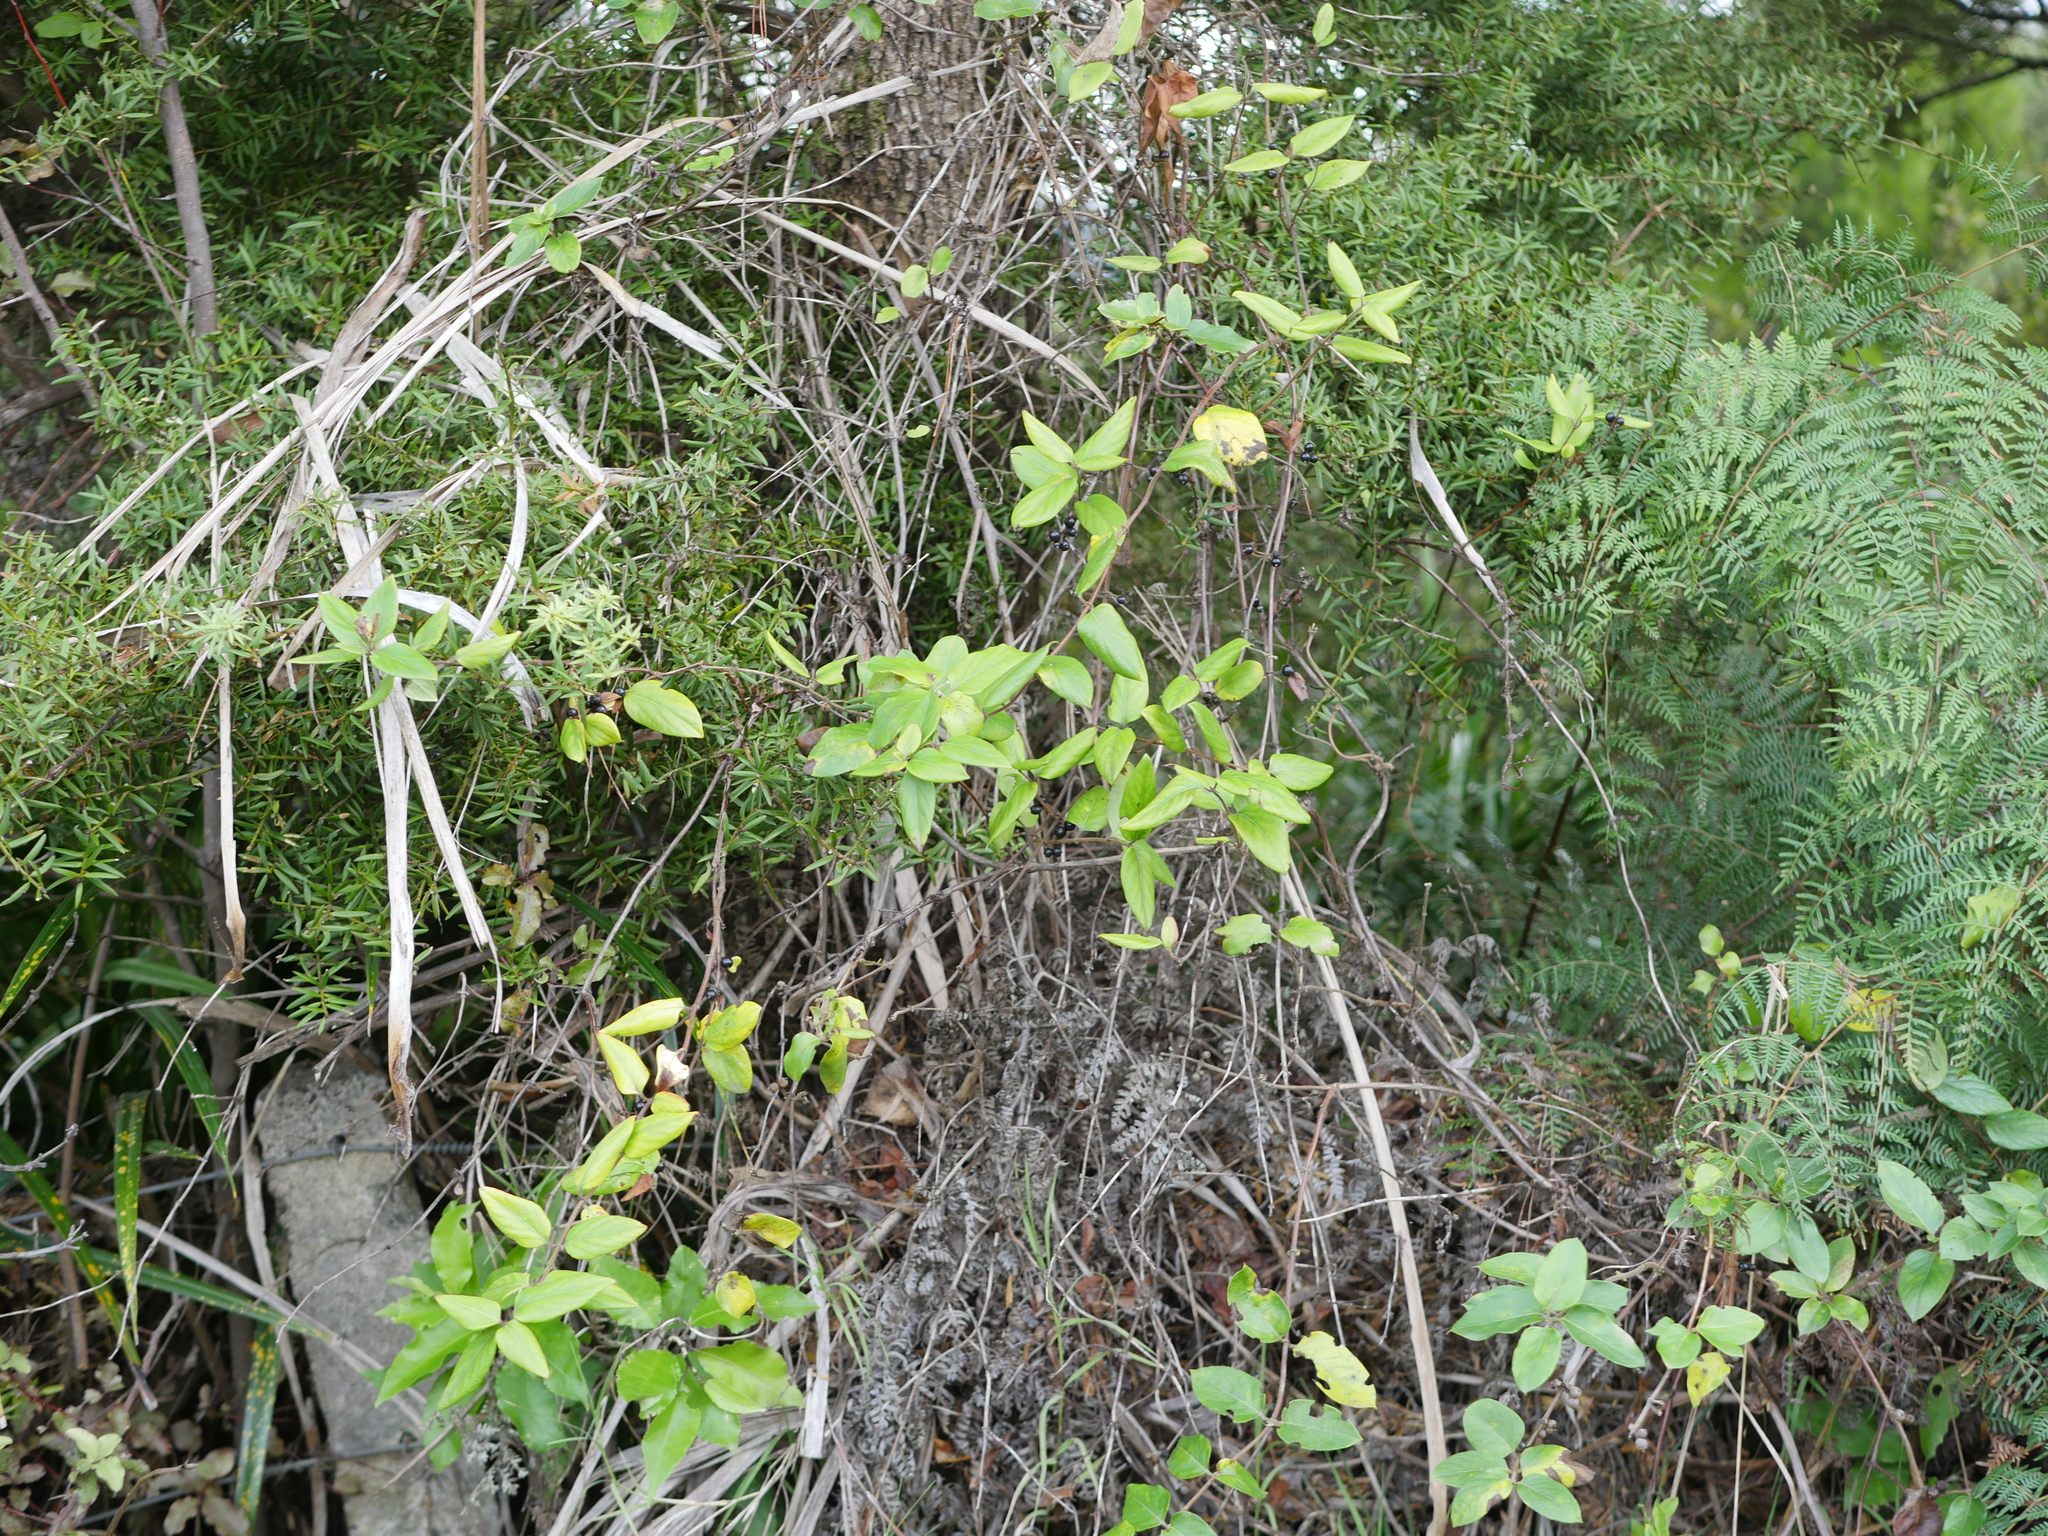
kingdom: Plantae
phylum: Tracheophyta
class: Magnoliopsida
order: Dipsacales
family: Caprifoliaceae
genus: Lonicera
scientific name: Lonicera japonica
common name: Japanese honeysuckle
